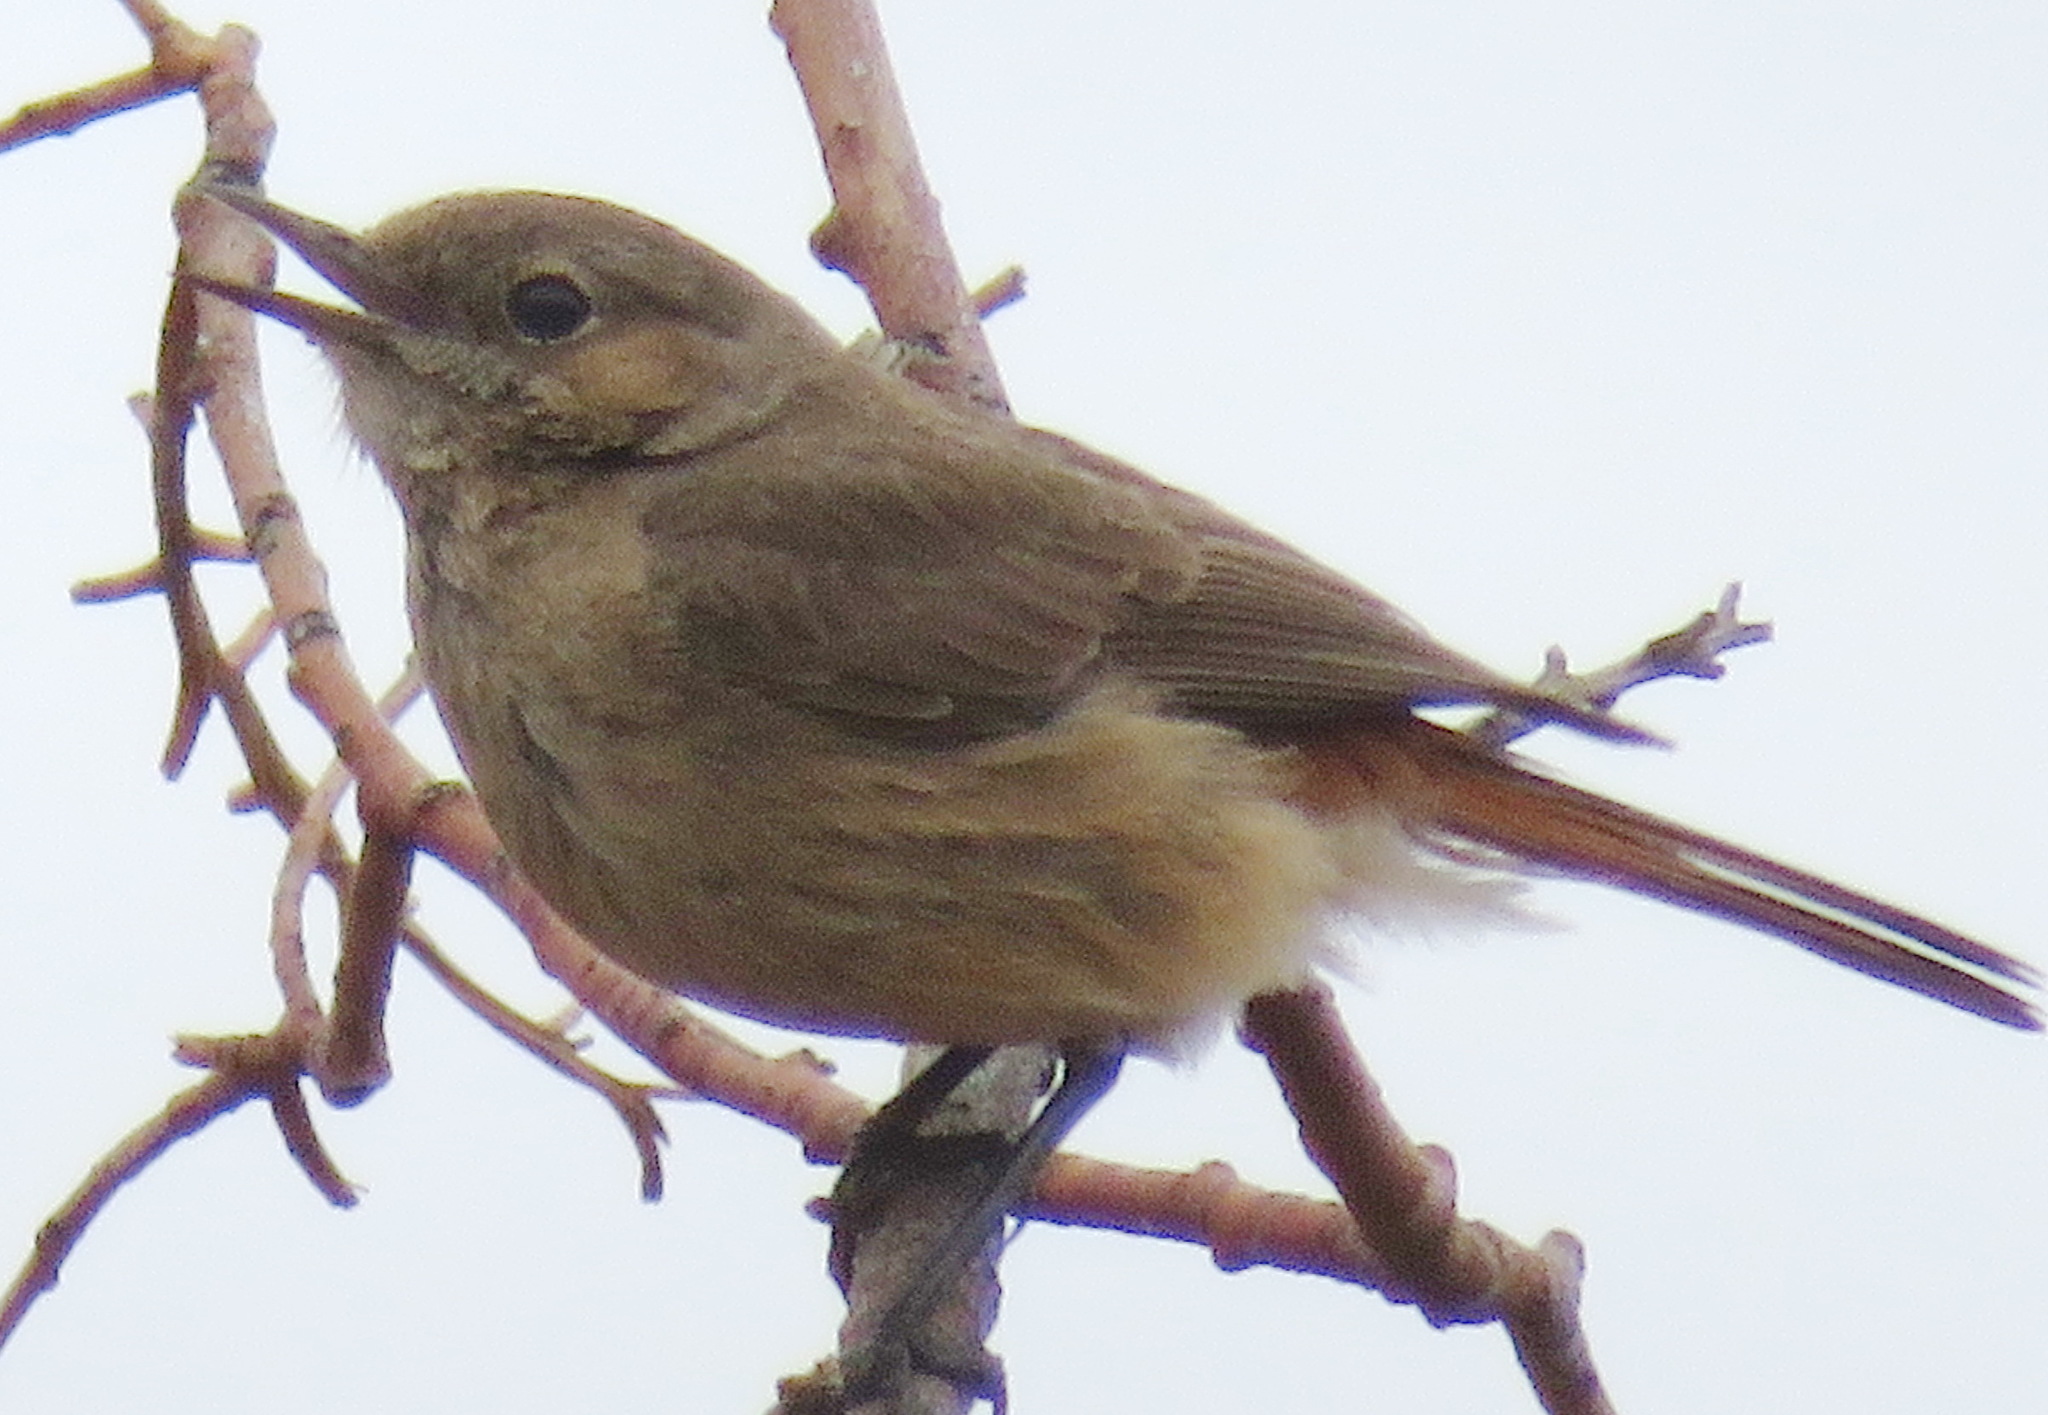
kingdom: Animalia
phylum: Chordata
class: Aves
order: Passeriformes
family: Muscicapidae
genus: Oenanthe
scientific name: Oenanthe familiaris
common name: Familiar chat
